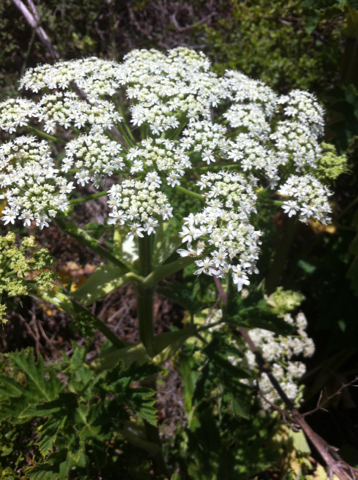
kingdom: Plantae
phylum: Tracheophyta
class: Magnoliopsida
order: Apiales
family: Apiaceae
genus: Heracleum
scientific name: Heracleum maximum
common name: American cow parsnip
